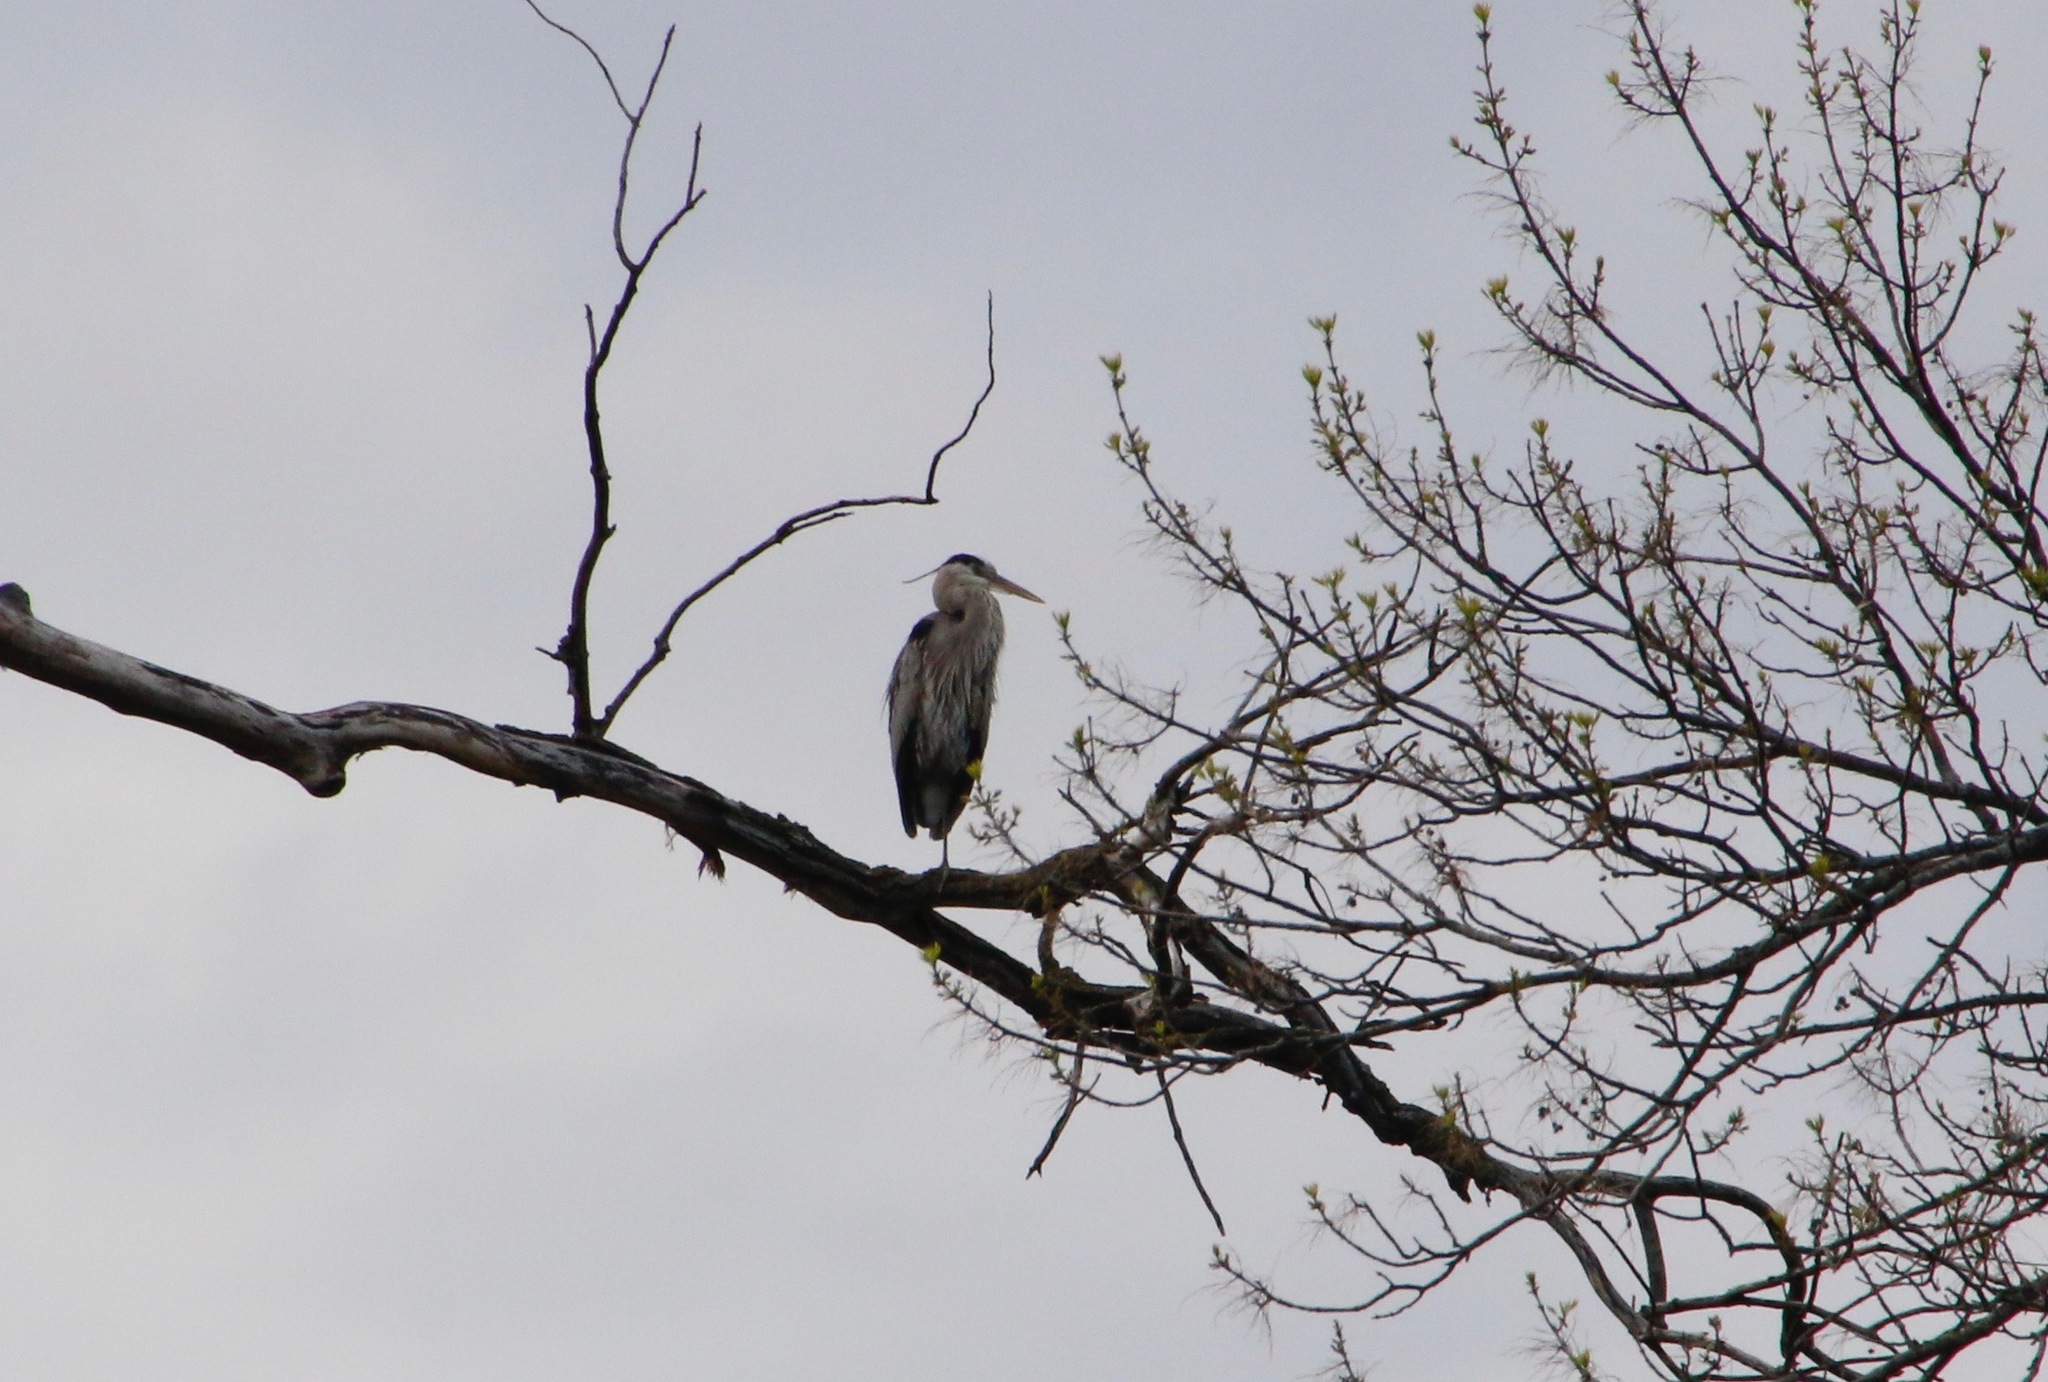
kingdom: Animalia
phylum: Chordata
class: Aves
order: Pelecaniformes
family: Ardeidae
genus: Ardea
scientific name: Ardea herodias
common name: Great blue heron
